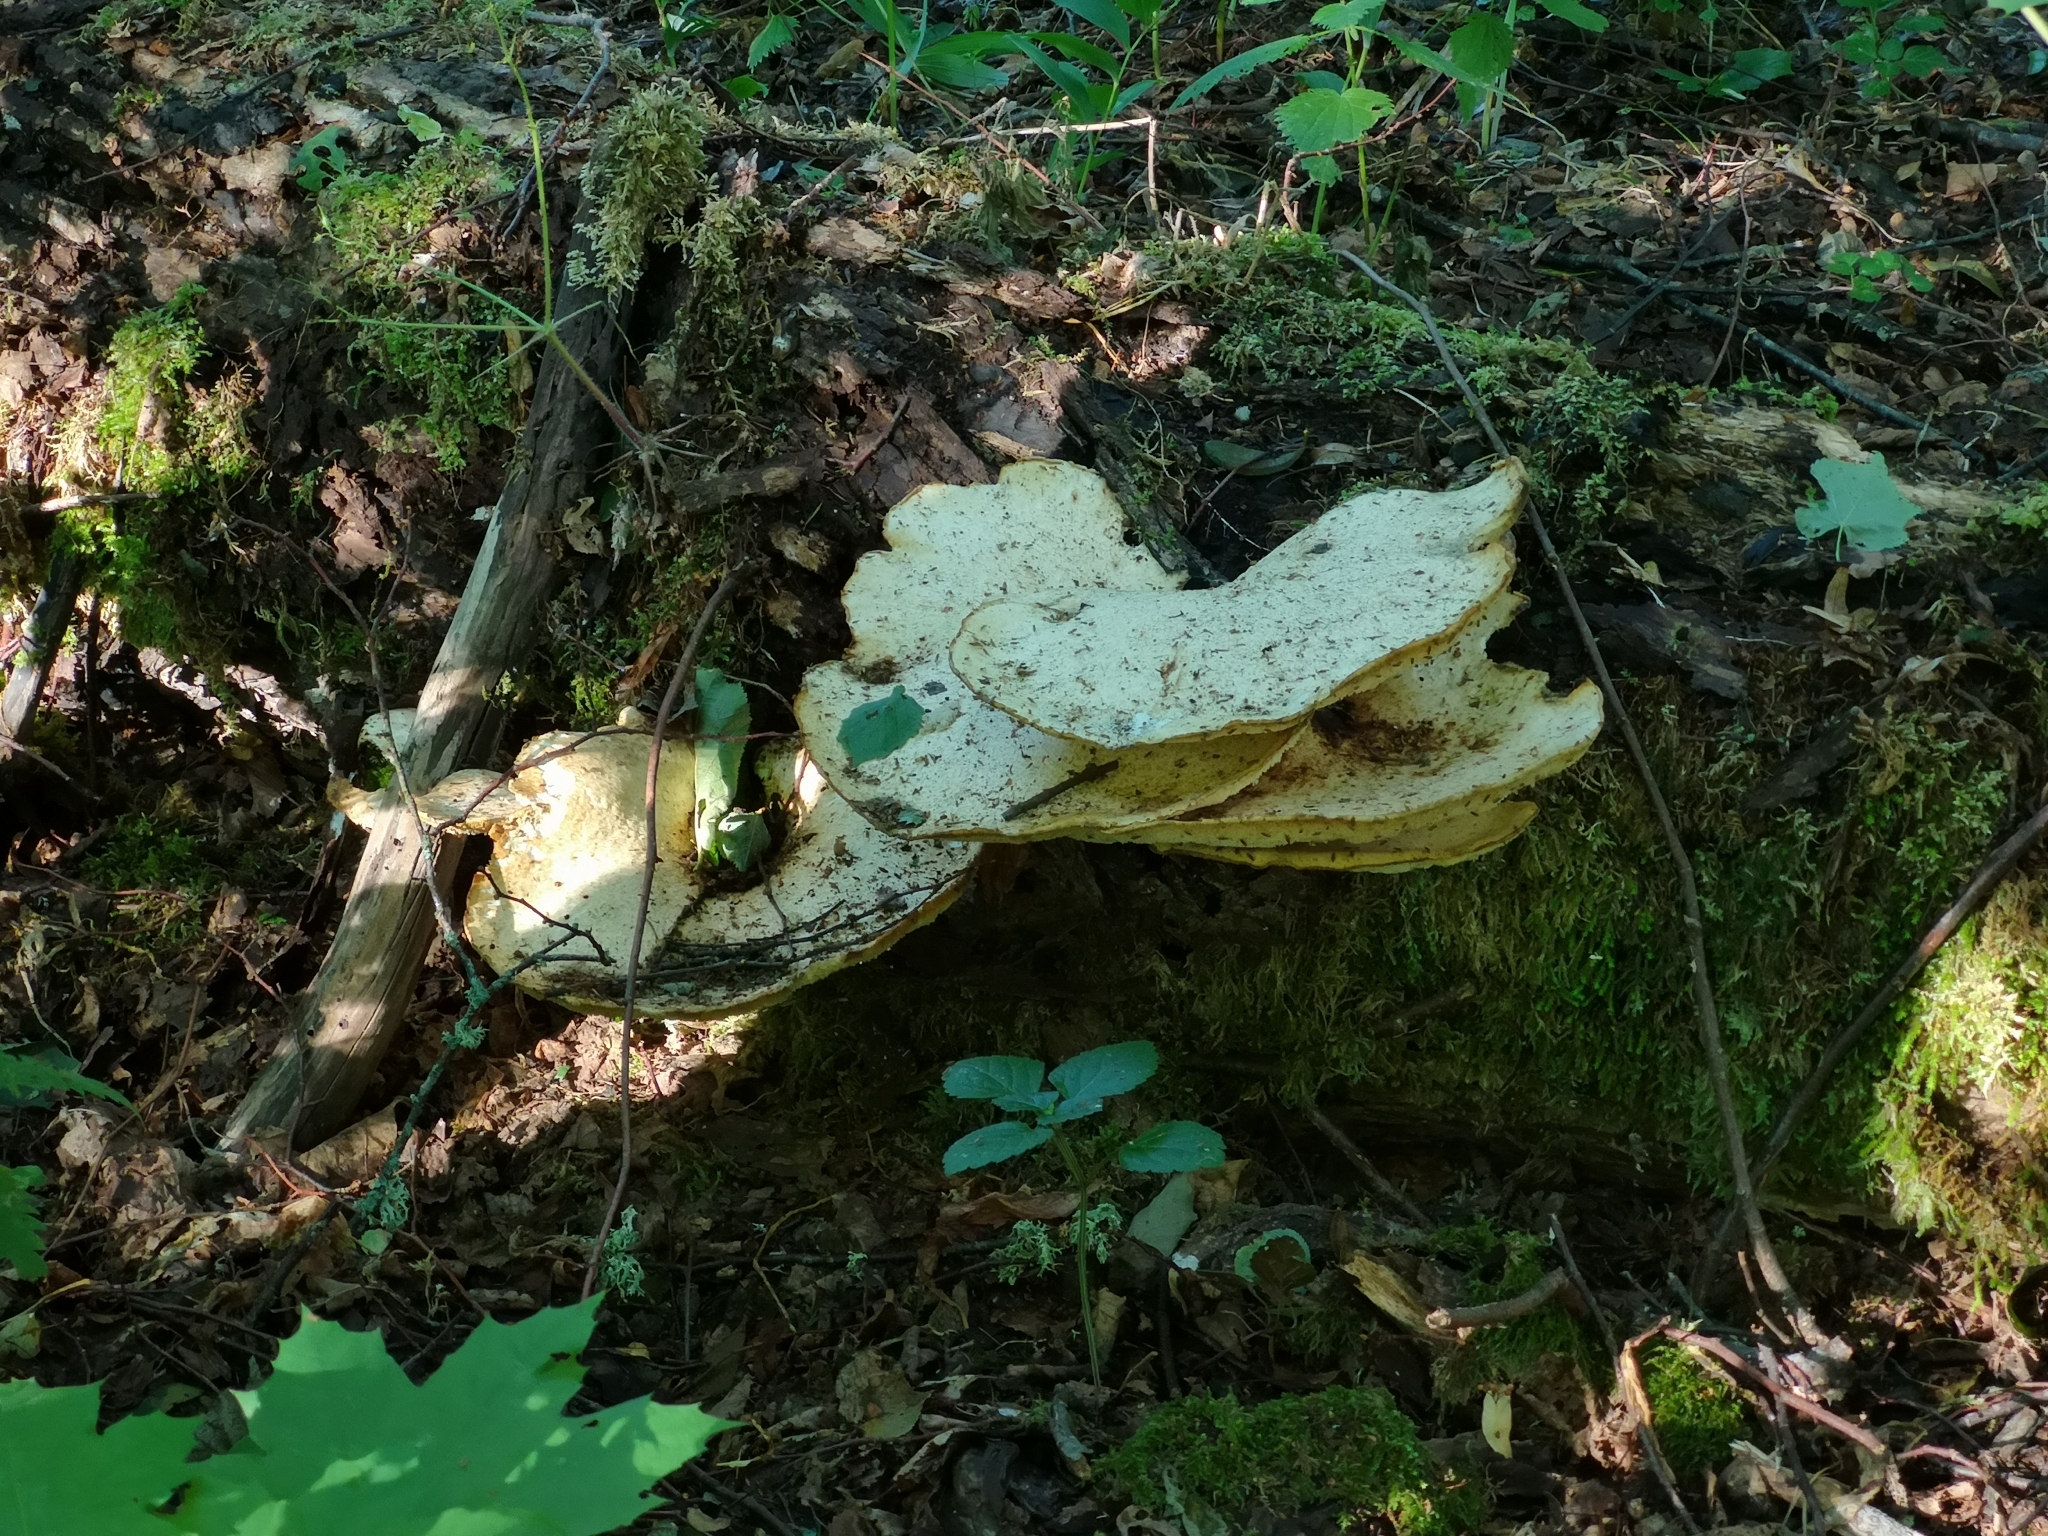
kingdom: Fungi
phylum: Basidiomycota
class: Agaricomycetes
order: Polyporales
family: Polyporaceae
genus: Cerioporus
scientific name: Cerioporus squamosus
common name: Dryad's saddle
